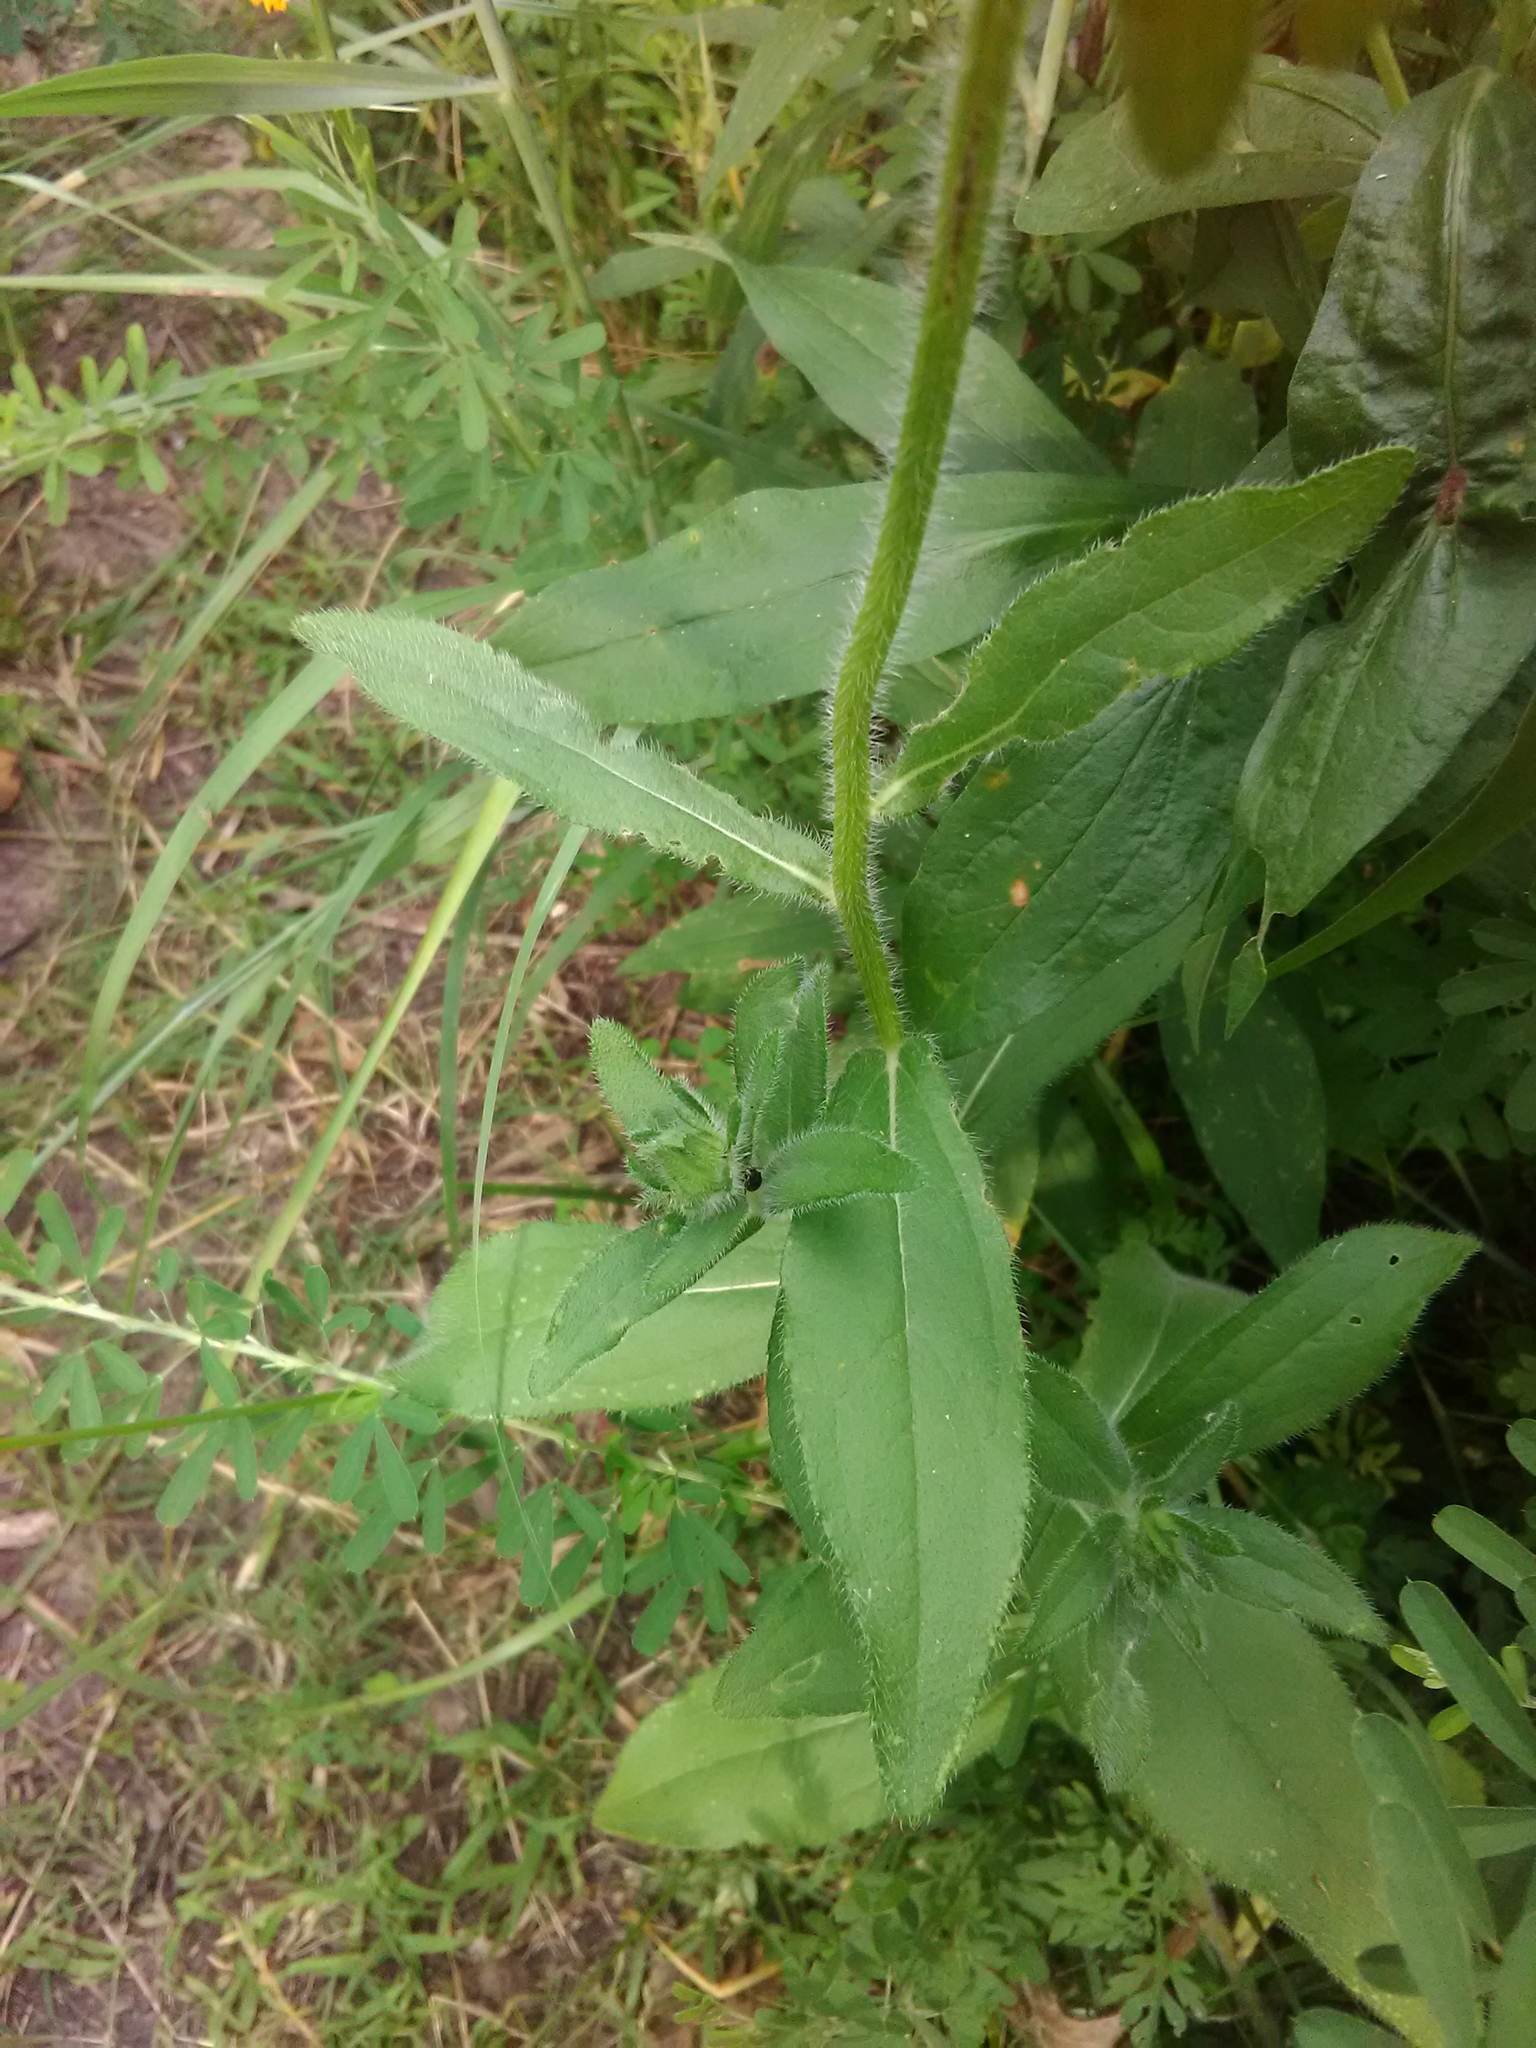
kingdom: Plantae
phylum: Tracheophyta
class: Magnoliopsida
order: Asterales
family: Asteraceae
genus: Rudbeckia
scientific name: Rudbeckia hirta
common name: Black-eyed-susan
